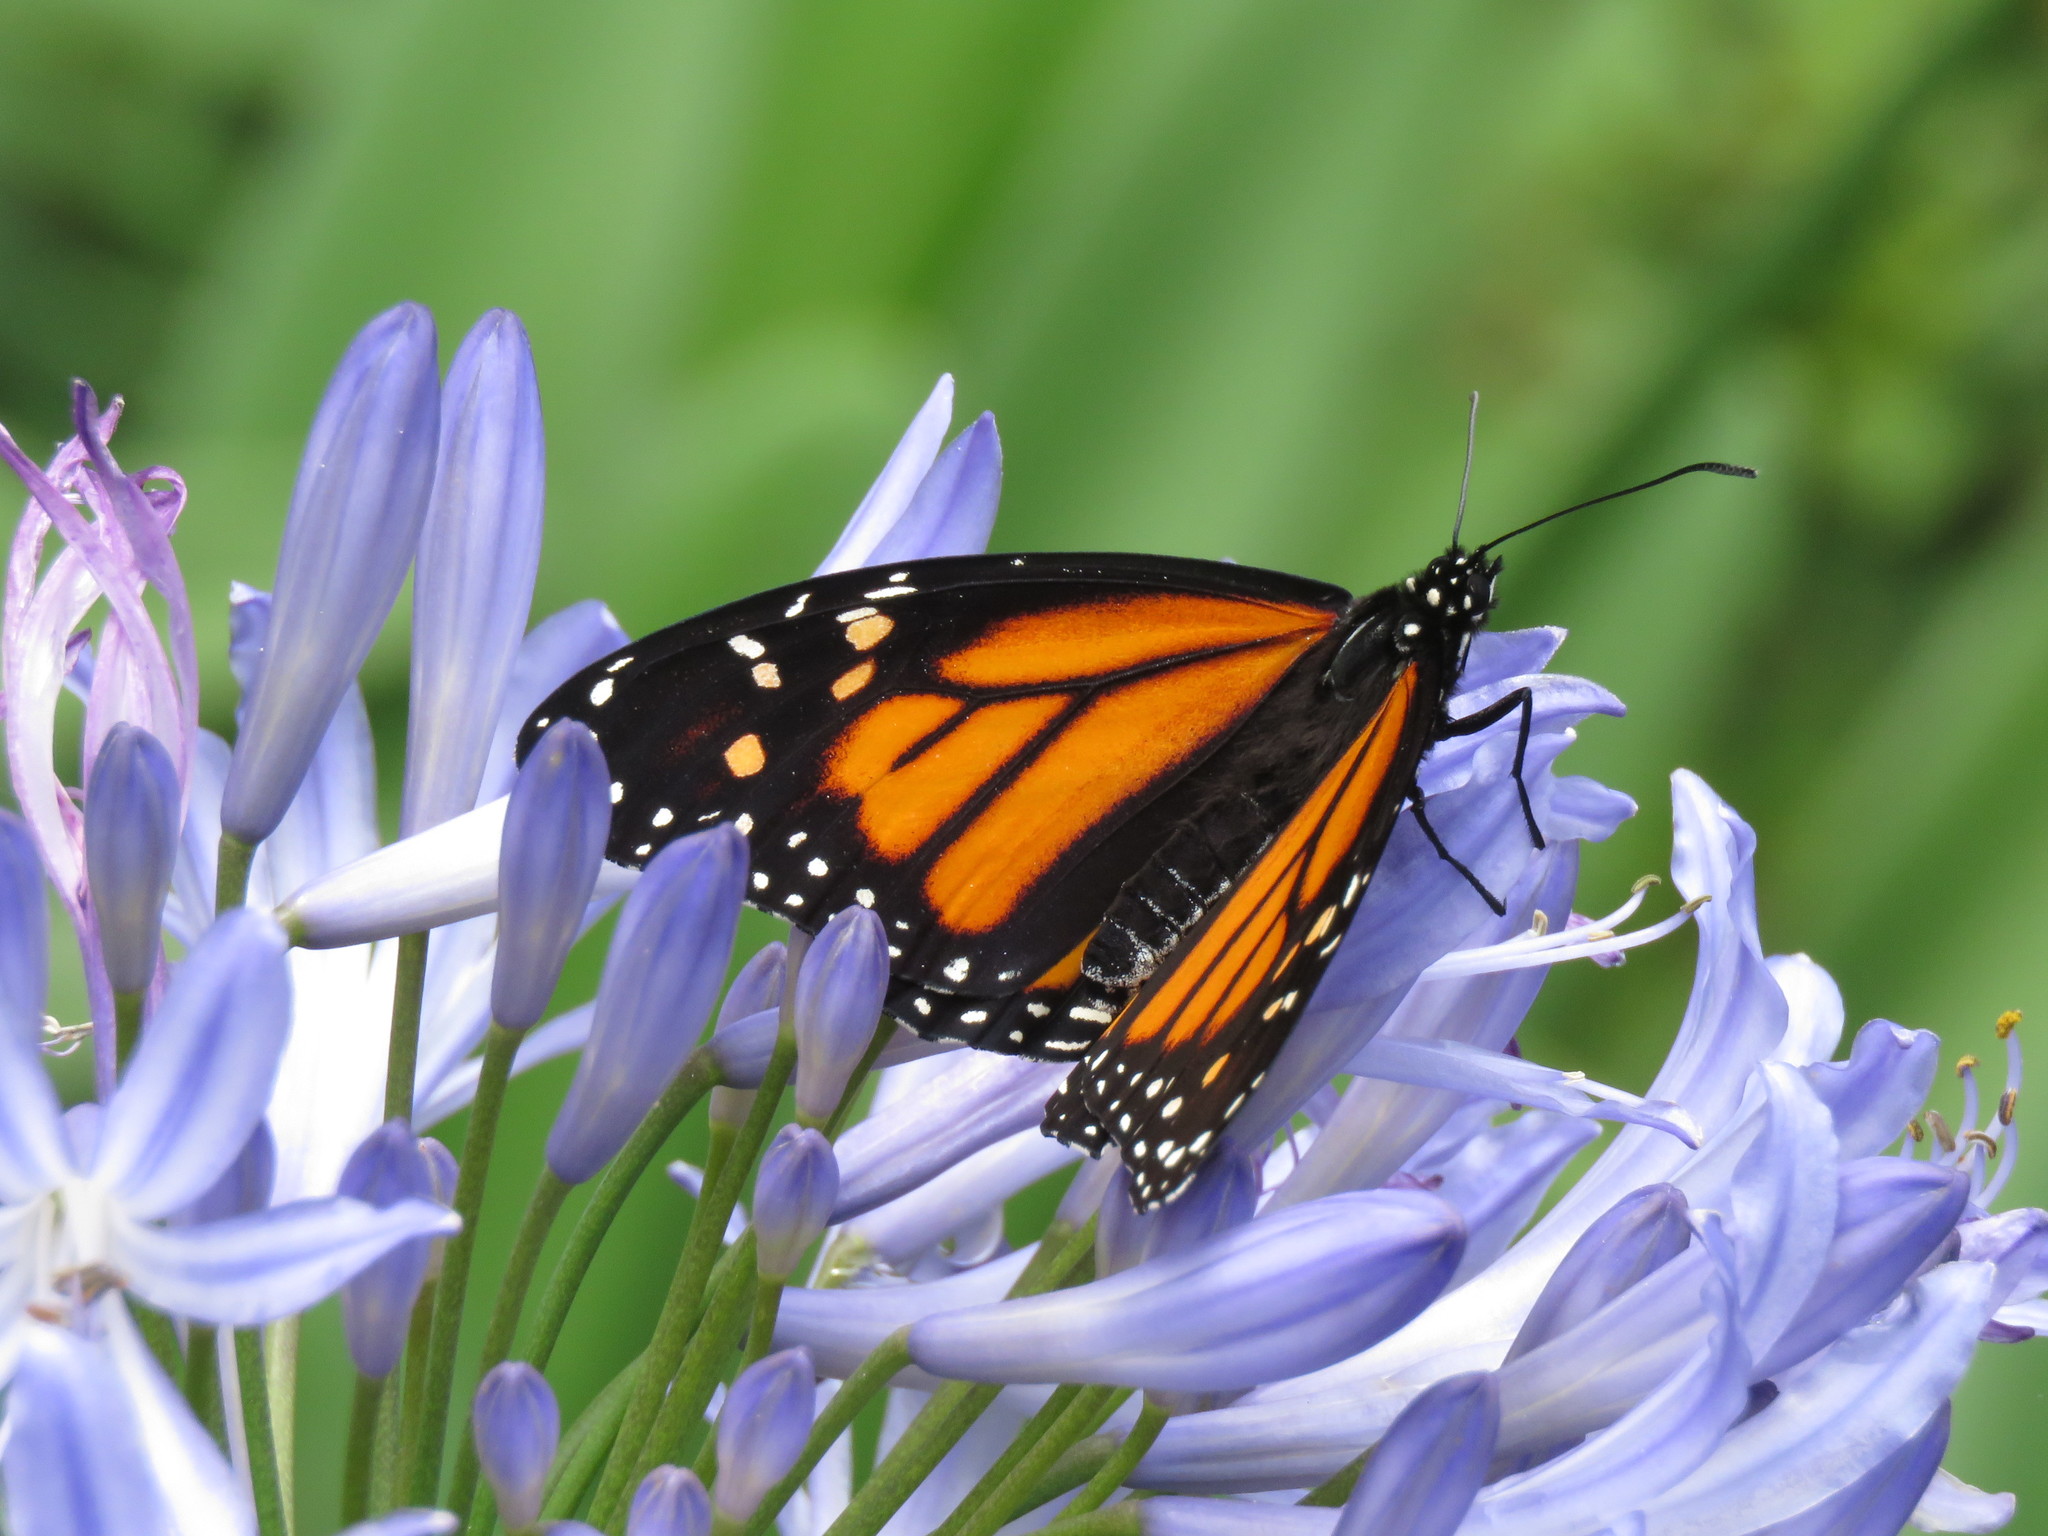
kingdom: Animalia
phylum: Arthropoda
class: Insecta
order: Lepidoptera
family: Nymphalidae
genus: Danaus
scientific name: Danaus plexippus
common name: Monarch
